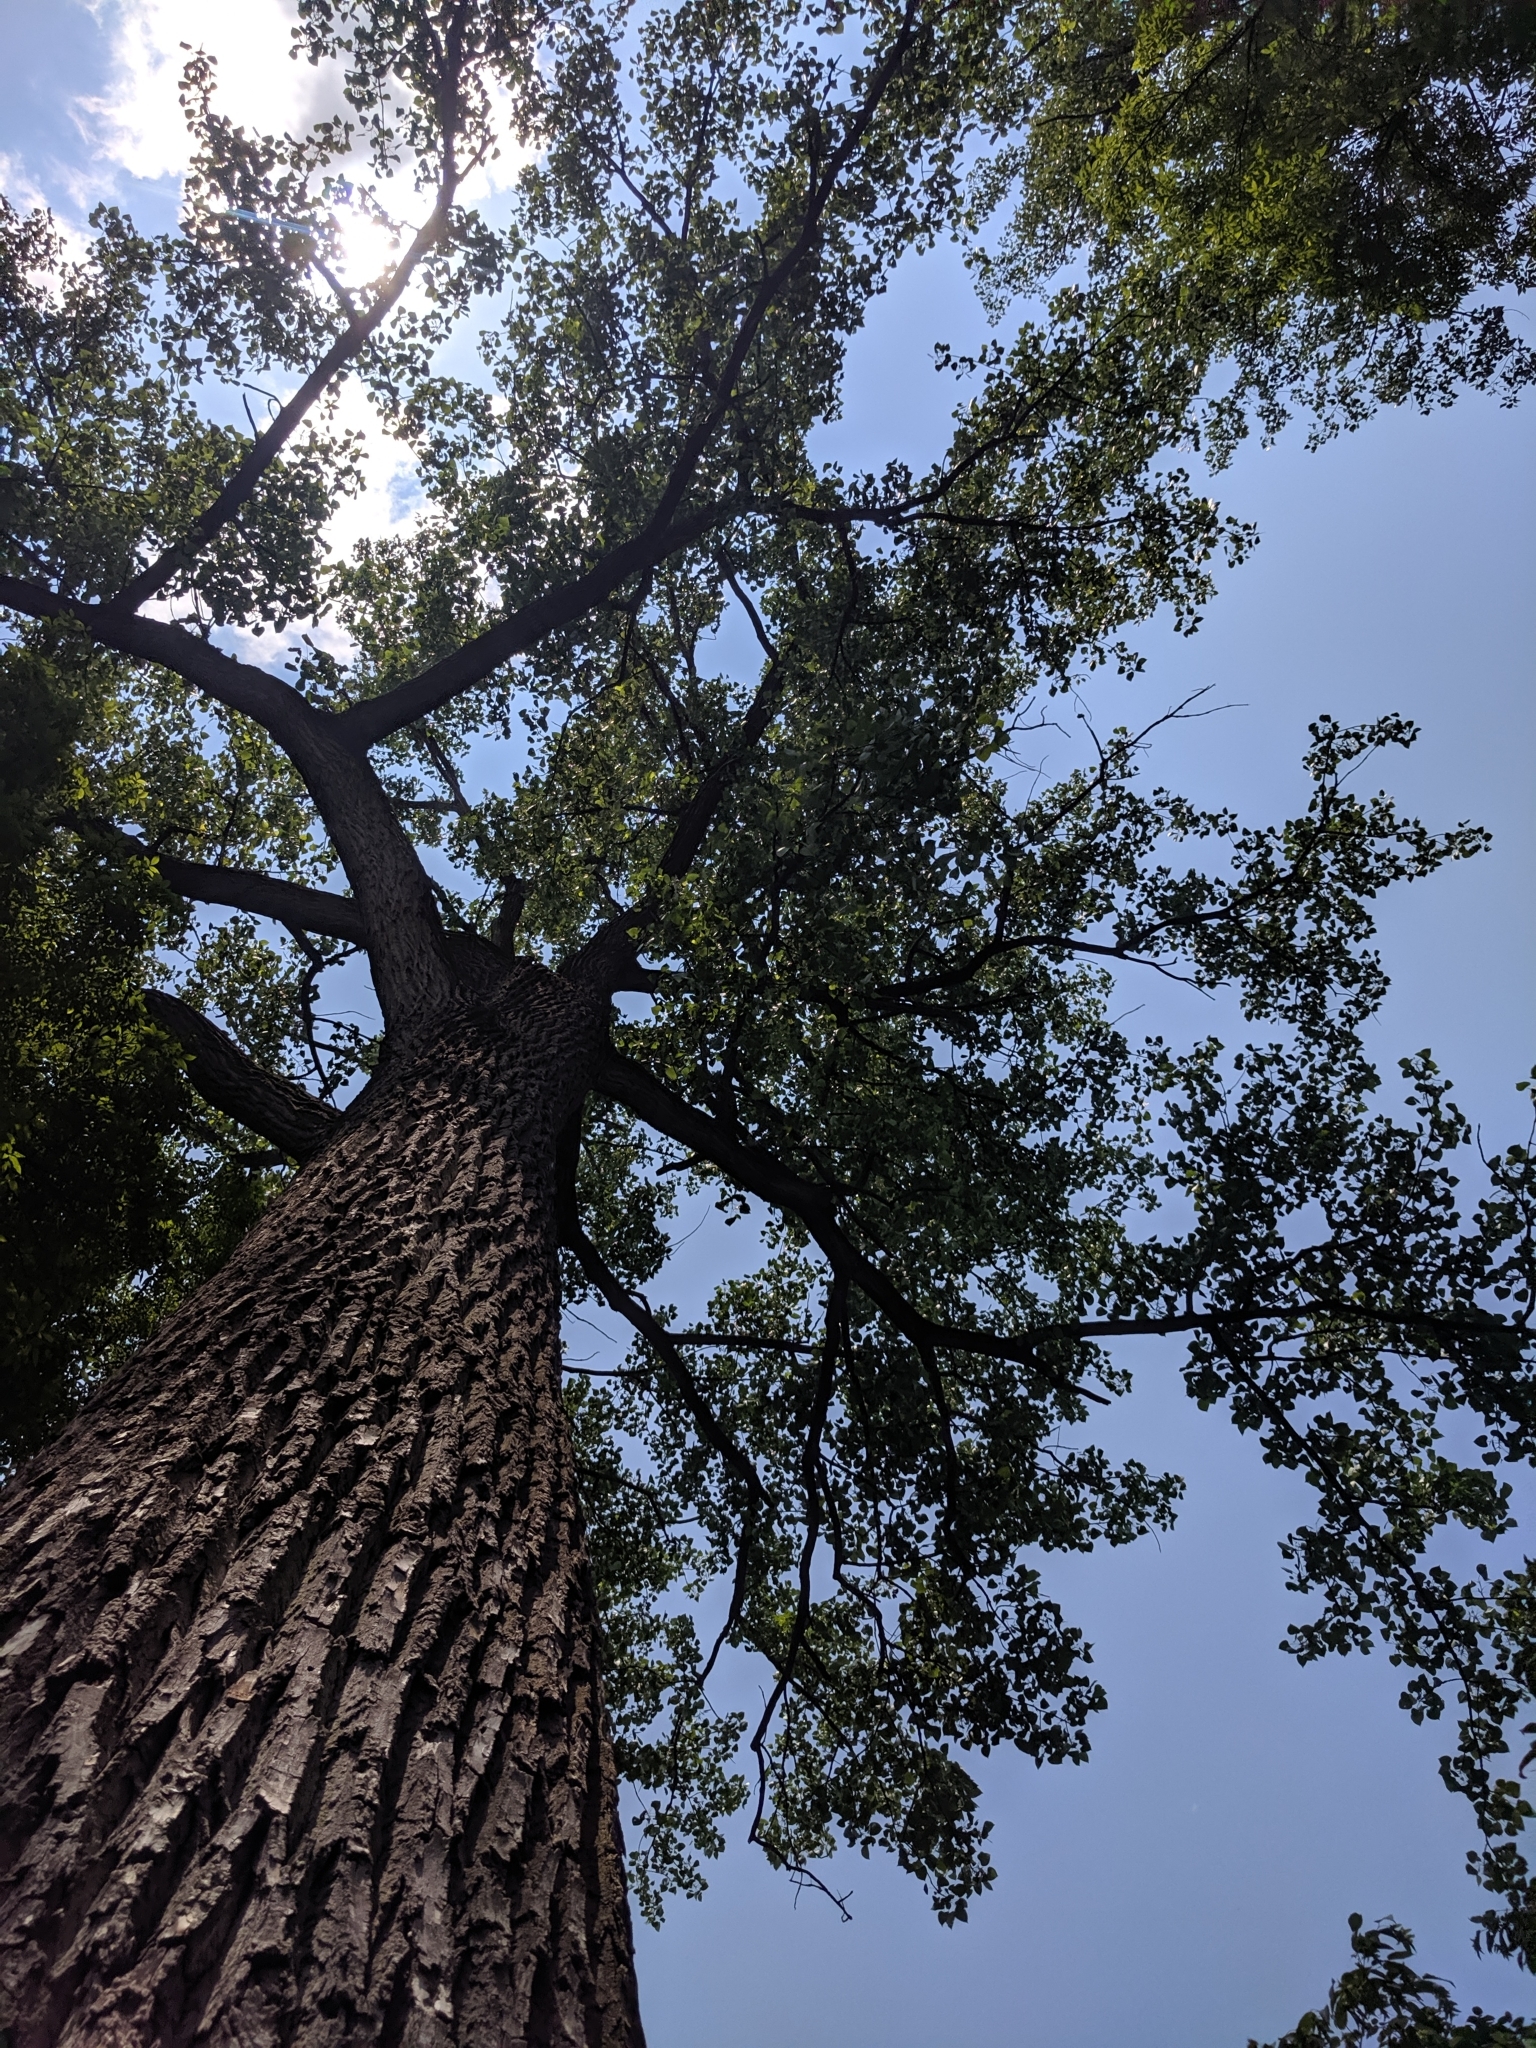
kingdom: Plantae
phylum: Tracheophyta
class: Magnoliopsida
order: Malpighiales
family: Salicaceae
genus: Populus
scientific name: Populus deltoides
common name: Eastern cottonwood
